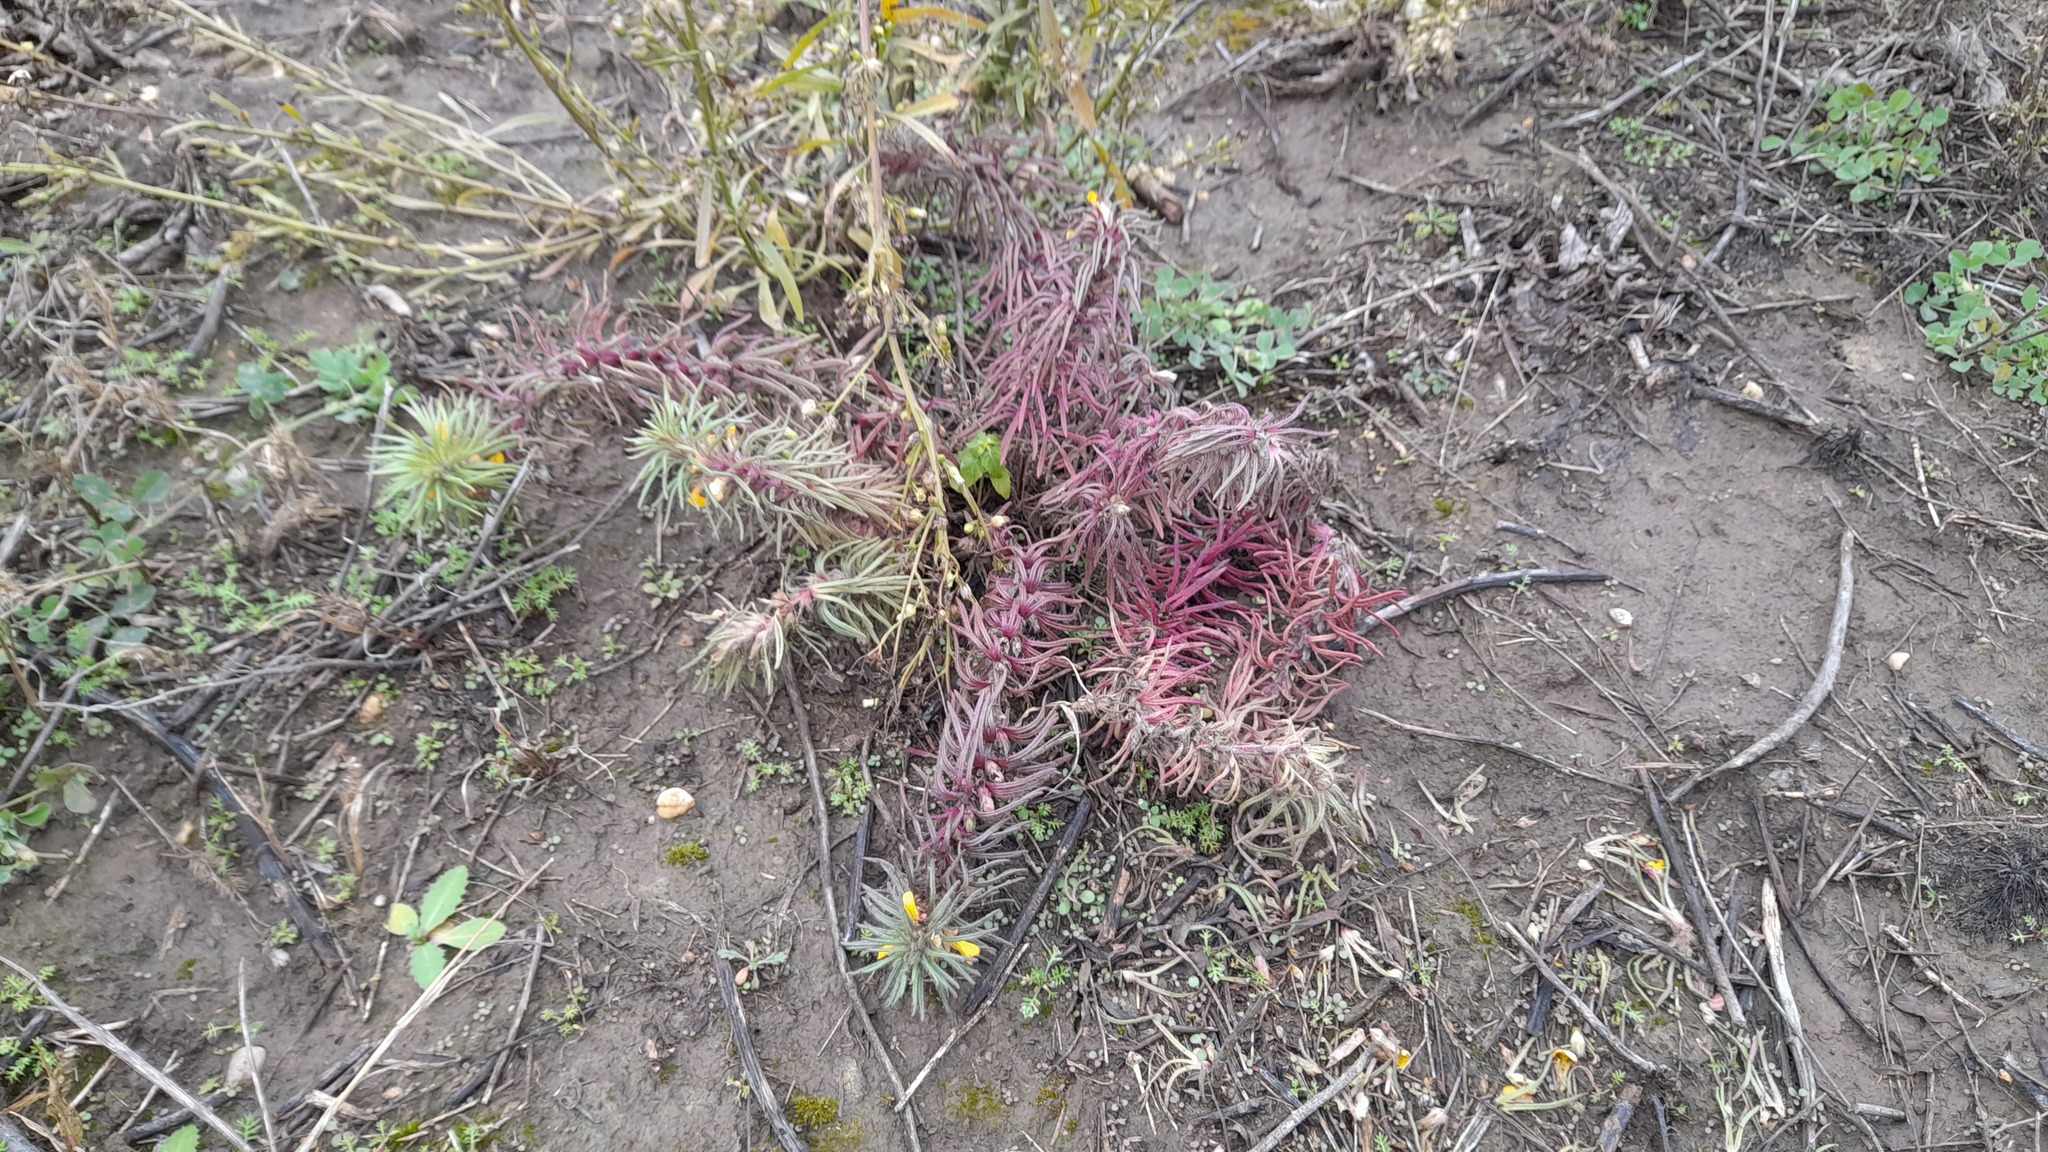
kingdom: Plantae
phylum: Tracheophyta
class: Magnoliopsida
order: Lamiales
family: Lamiaceae
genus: Ajuga
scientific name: Ajuga chamaepitys
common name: Ground-pine
